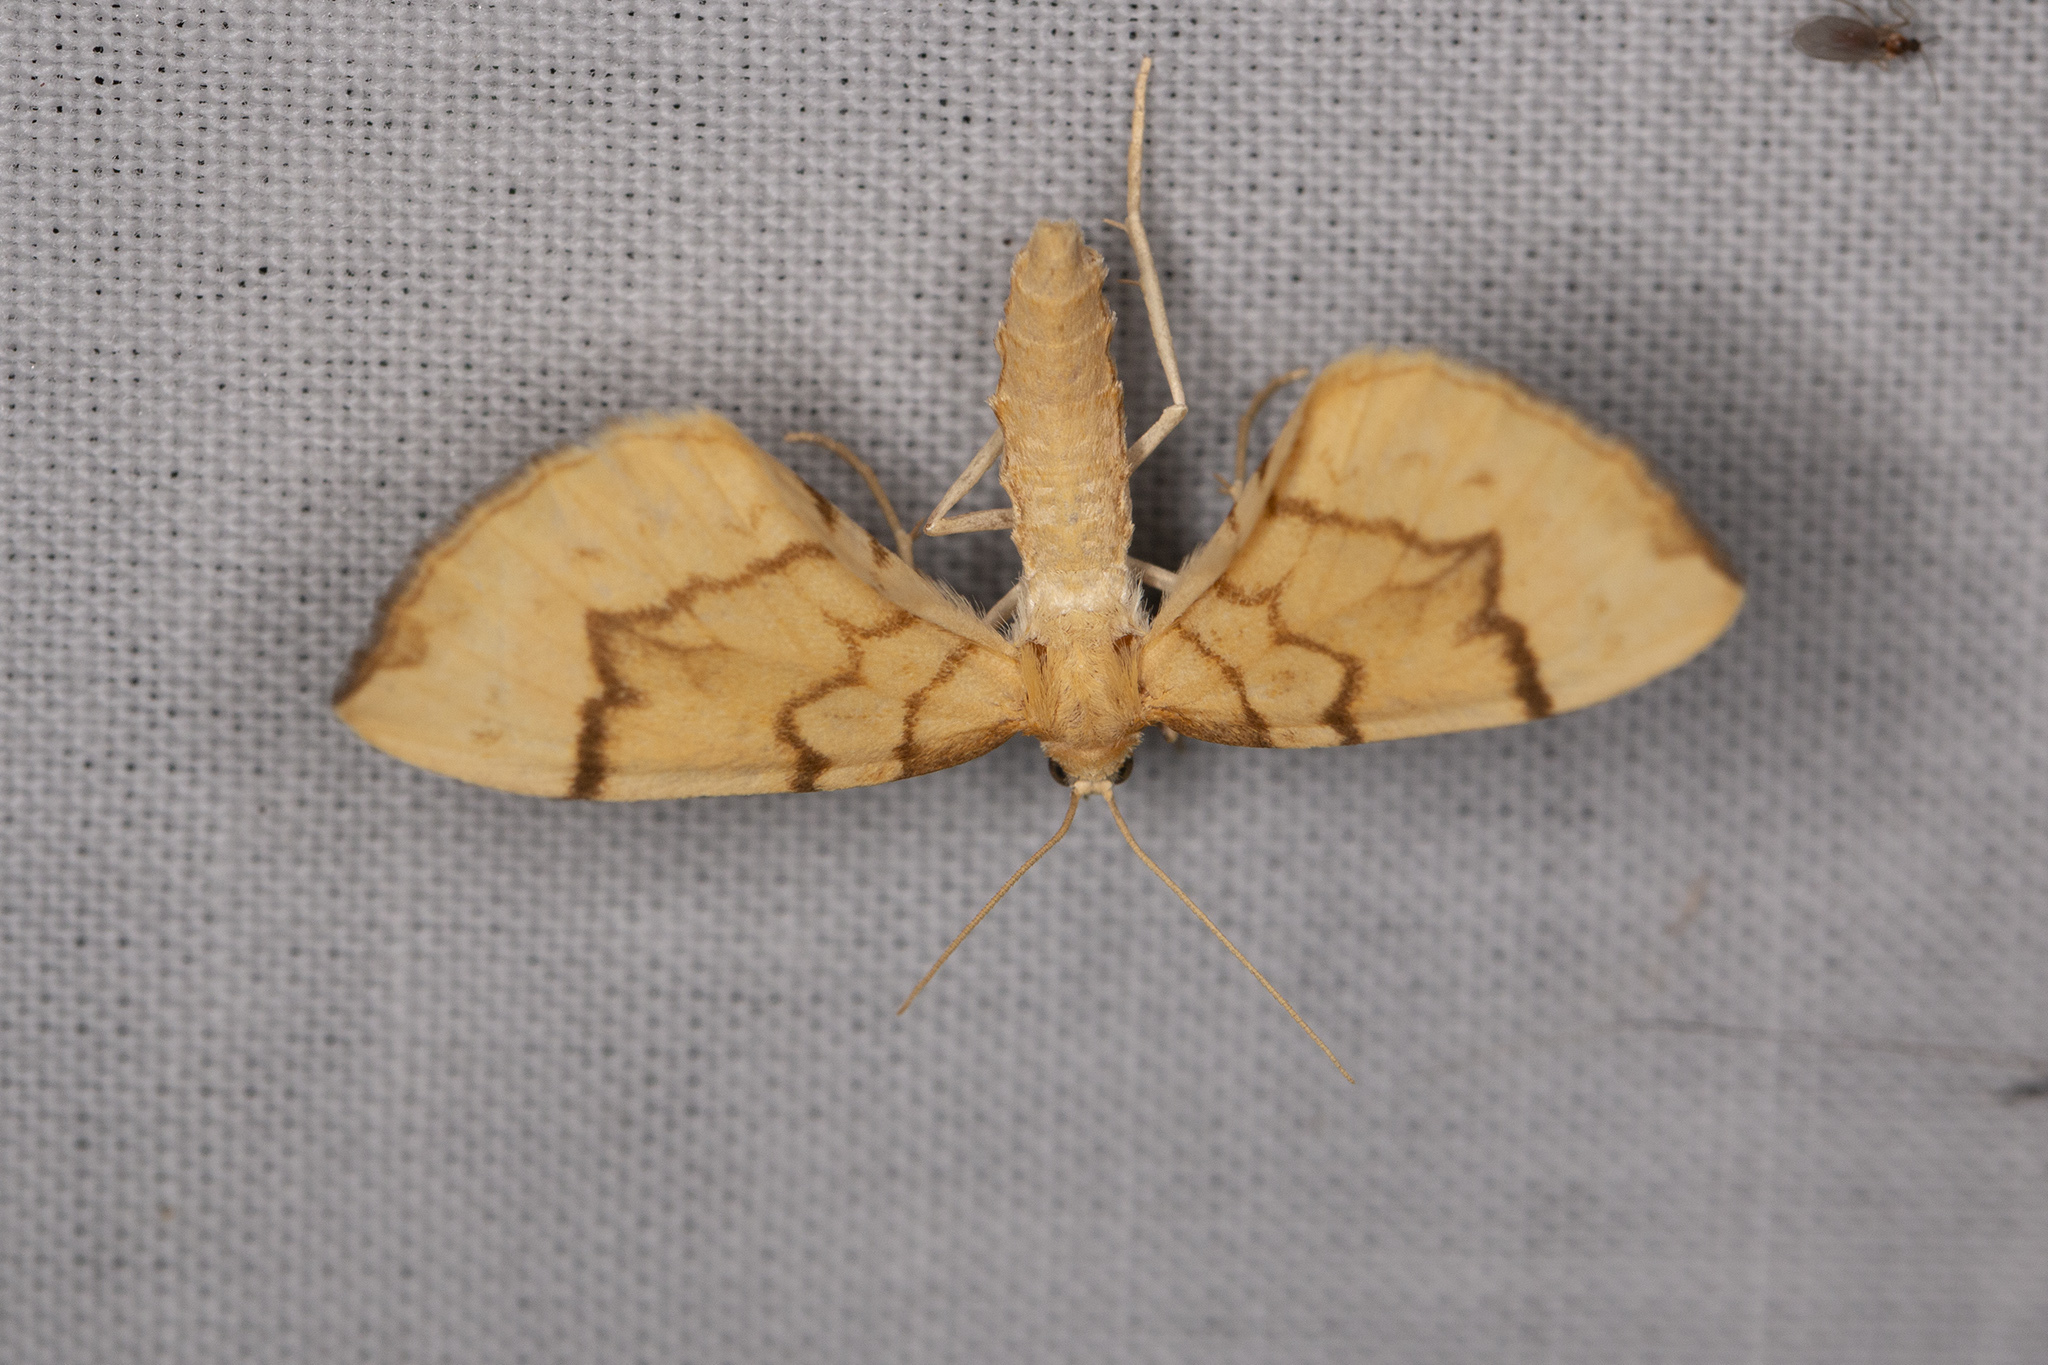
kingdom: Animalia
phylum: Arthropoda
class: Insecta
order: Lepidoptera
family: Geometridae
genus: Eulithis
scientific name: Eulithis pyraliata
